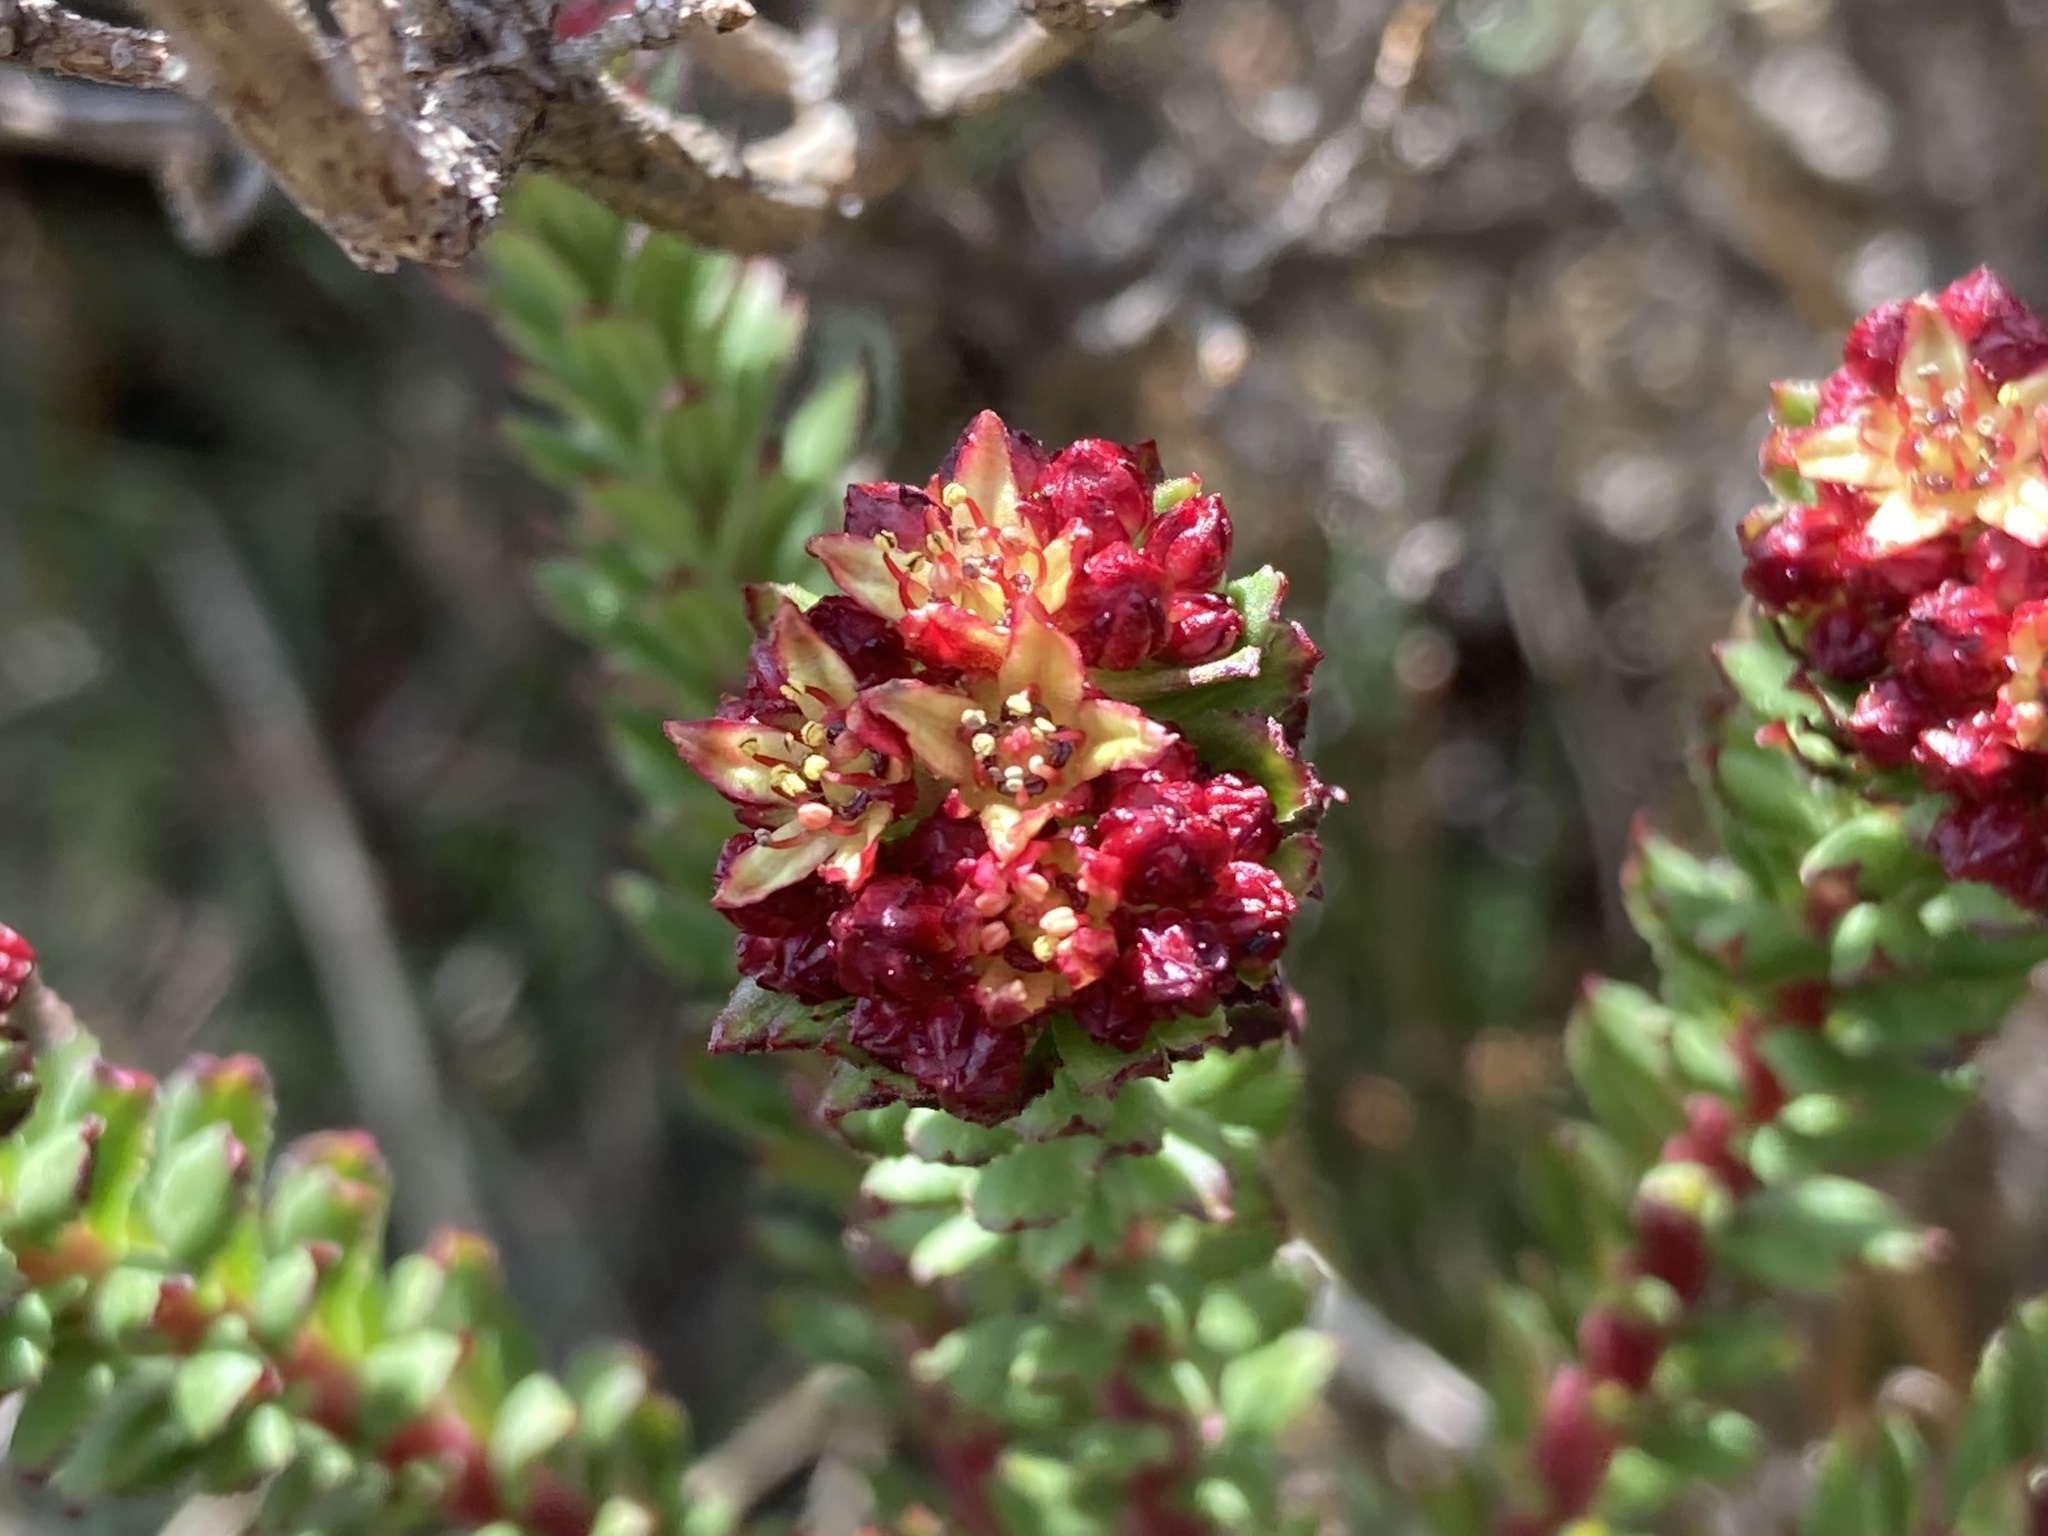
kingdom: Plantae
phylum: Tracheophyta
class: Magnoliopsida
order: Saxifragales
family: Crassulaceae
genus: Rhodiola
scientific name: Rhodiola himalensis
